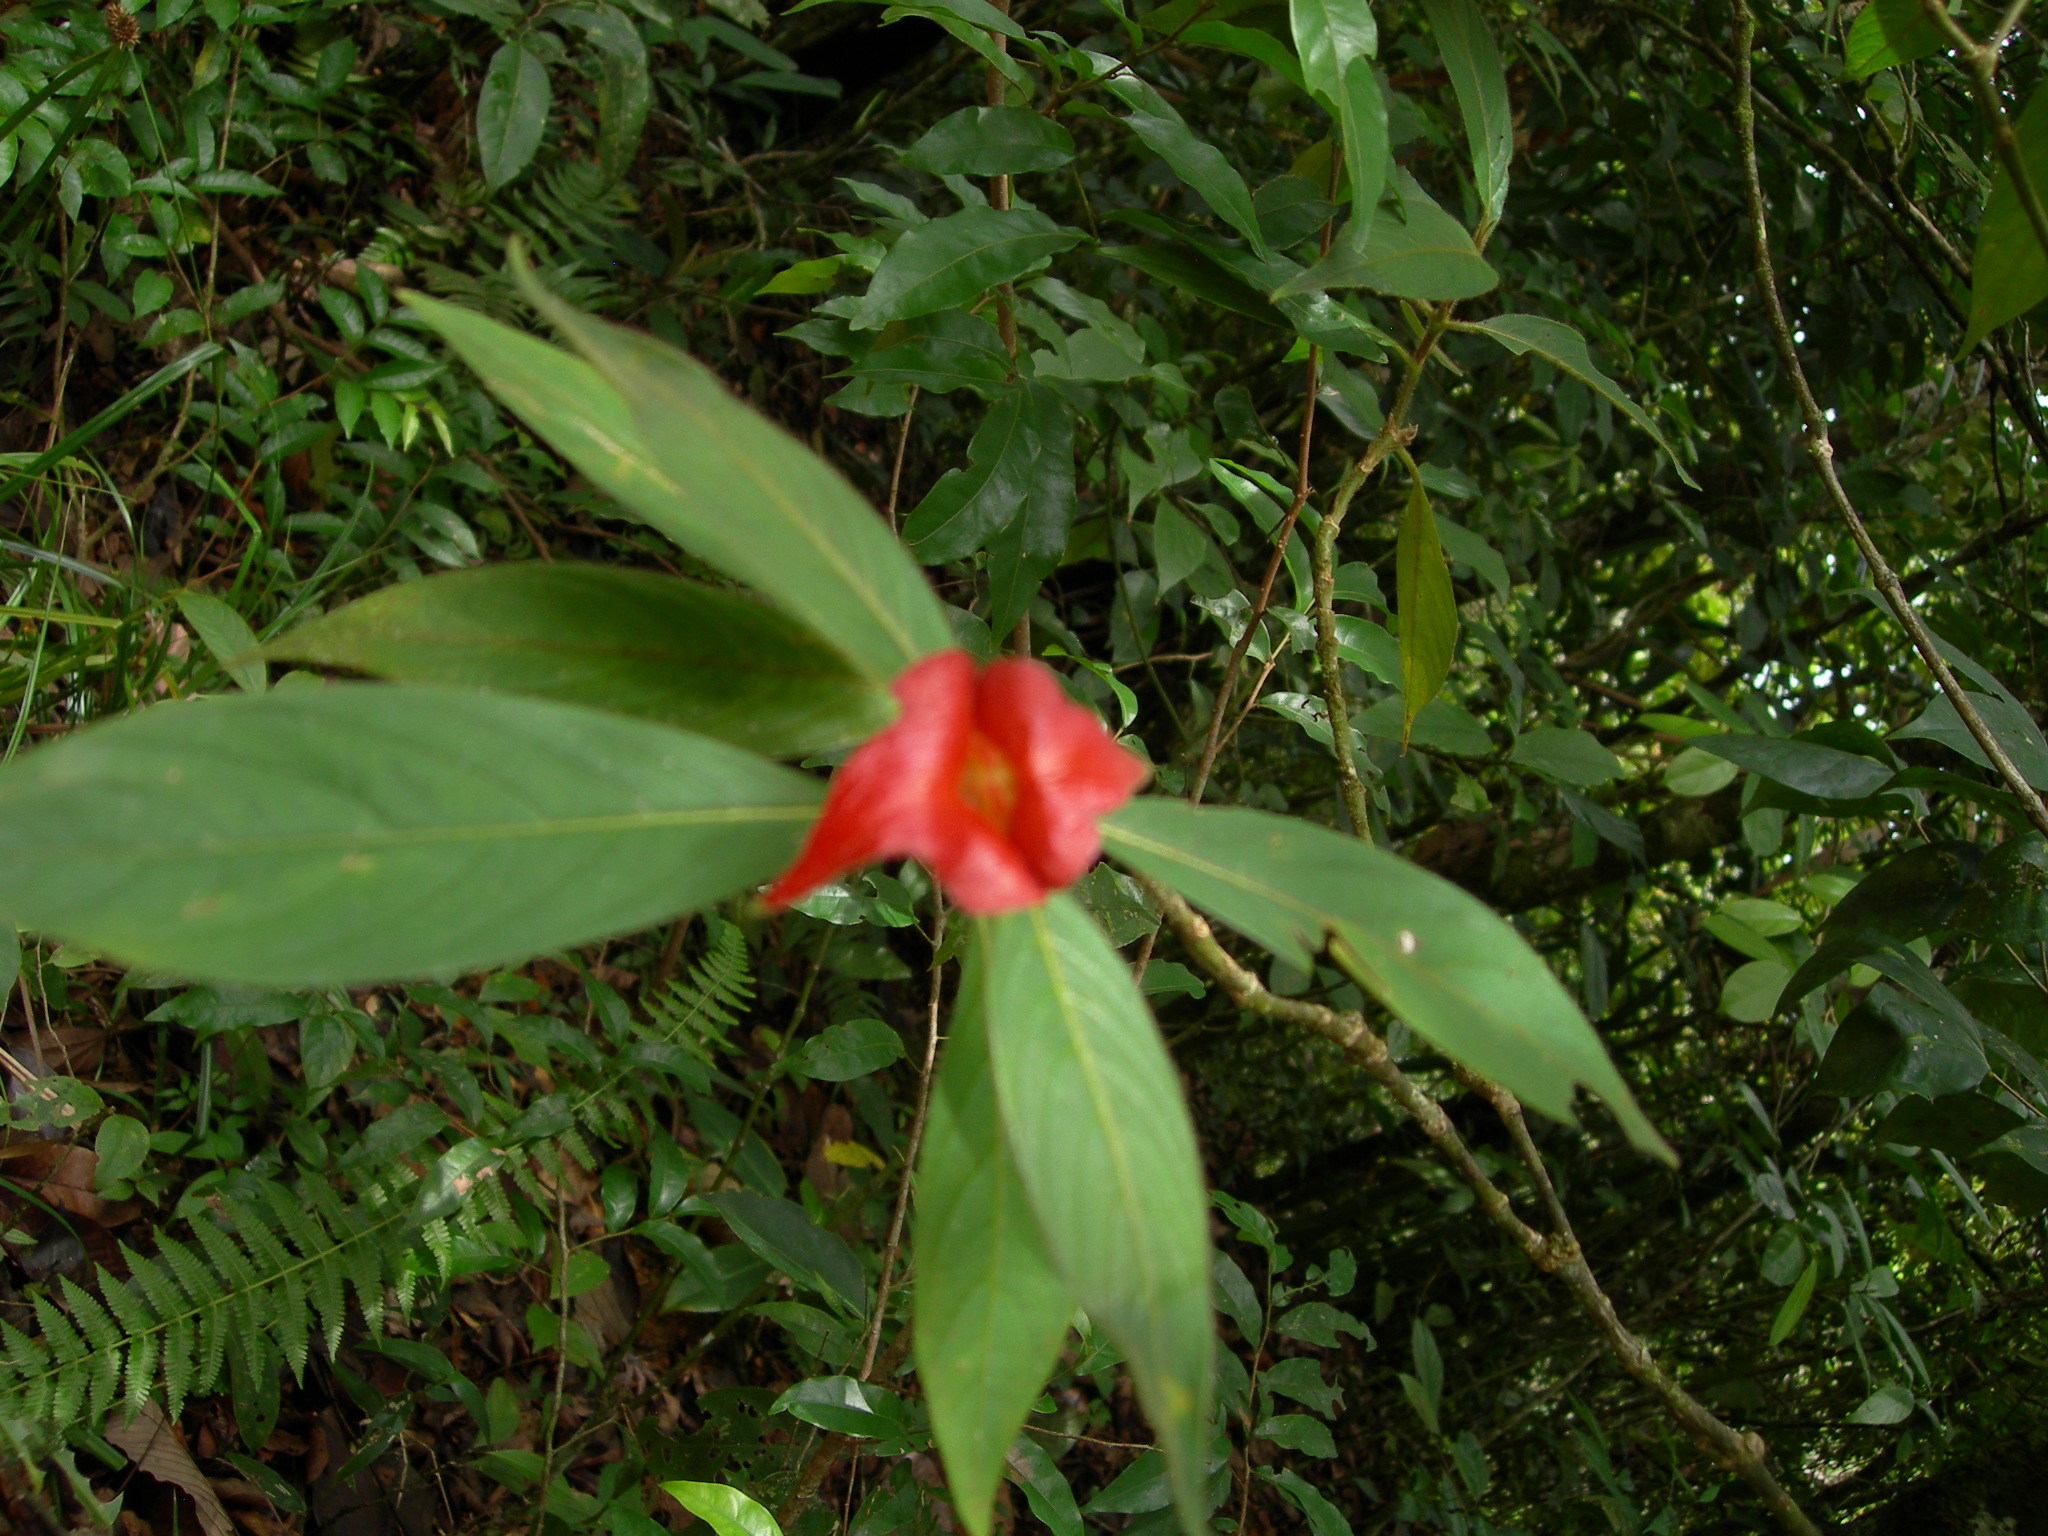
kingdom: Plantae
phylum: Tracheophyta
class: Magnoliopsida
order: Gentianales
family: Rubiaceae
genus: Palicourea
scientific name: Palicourea tomentosa
